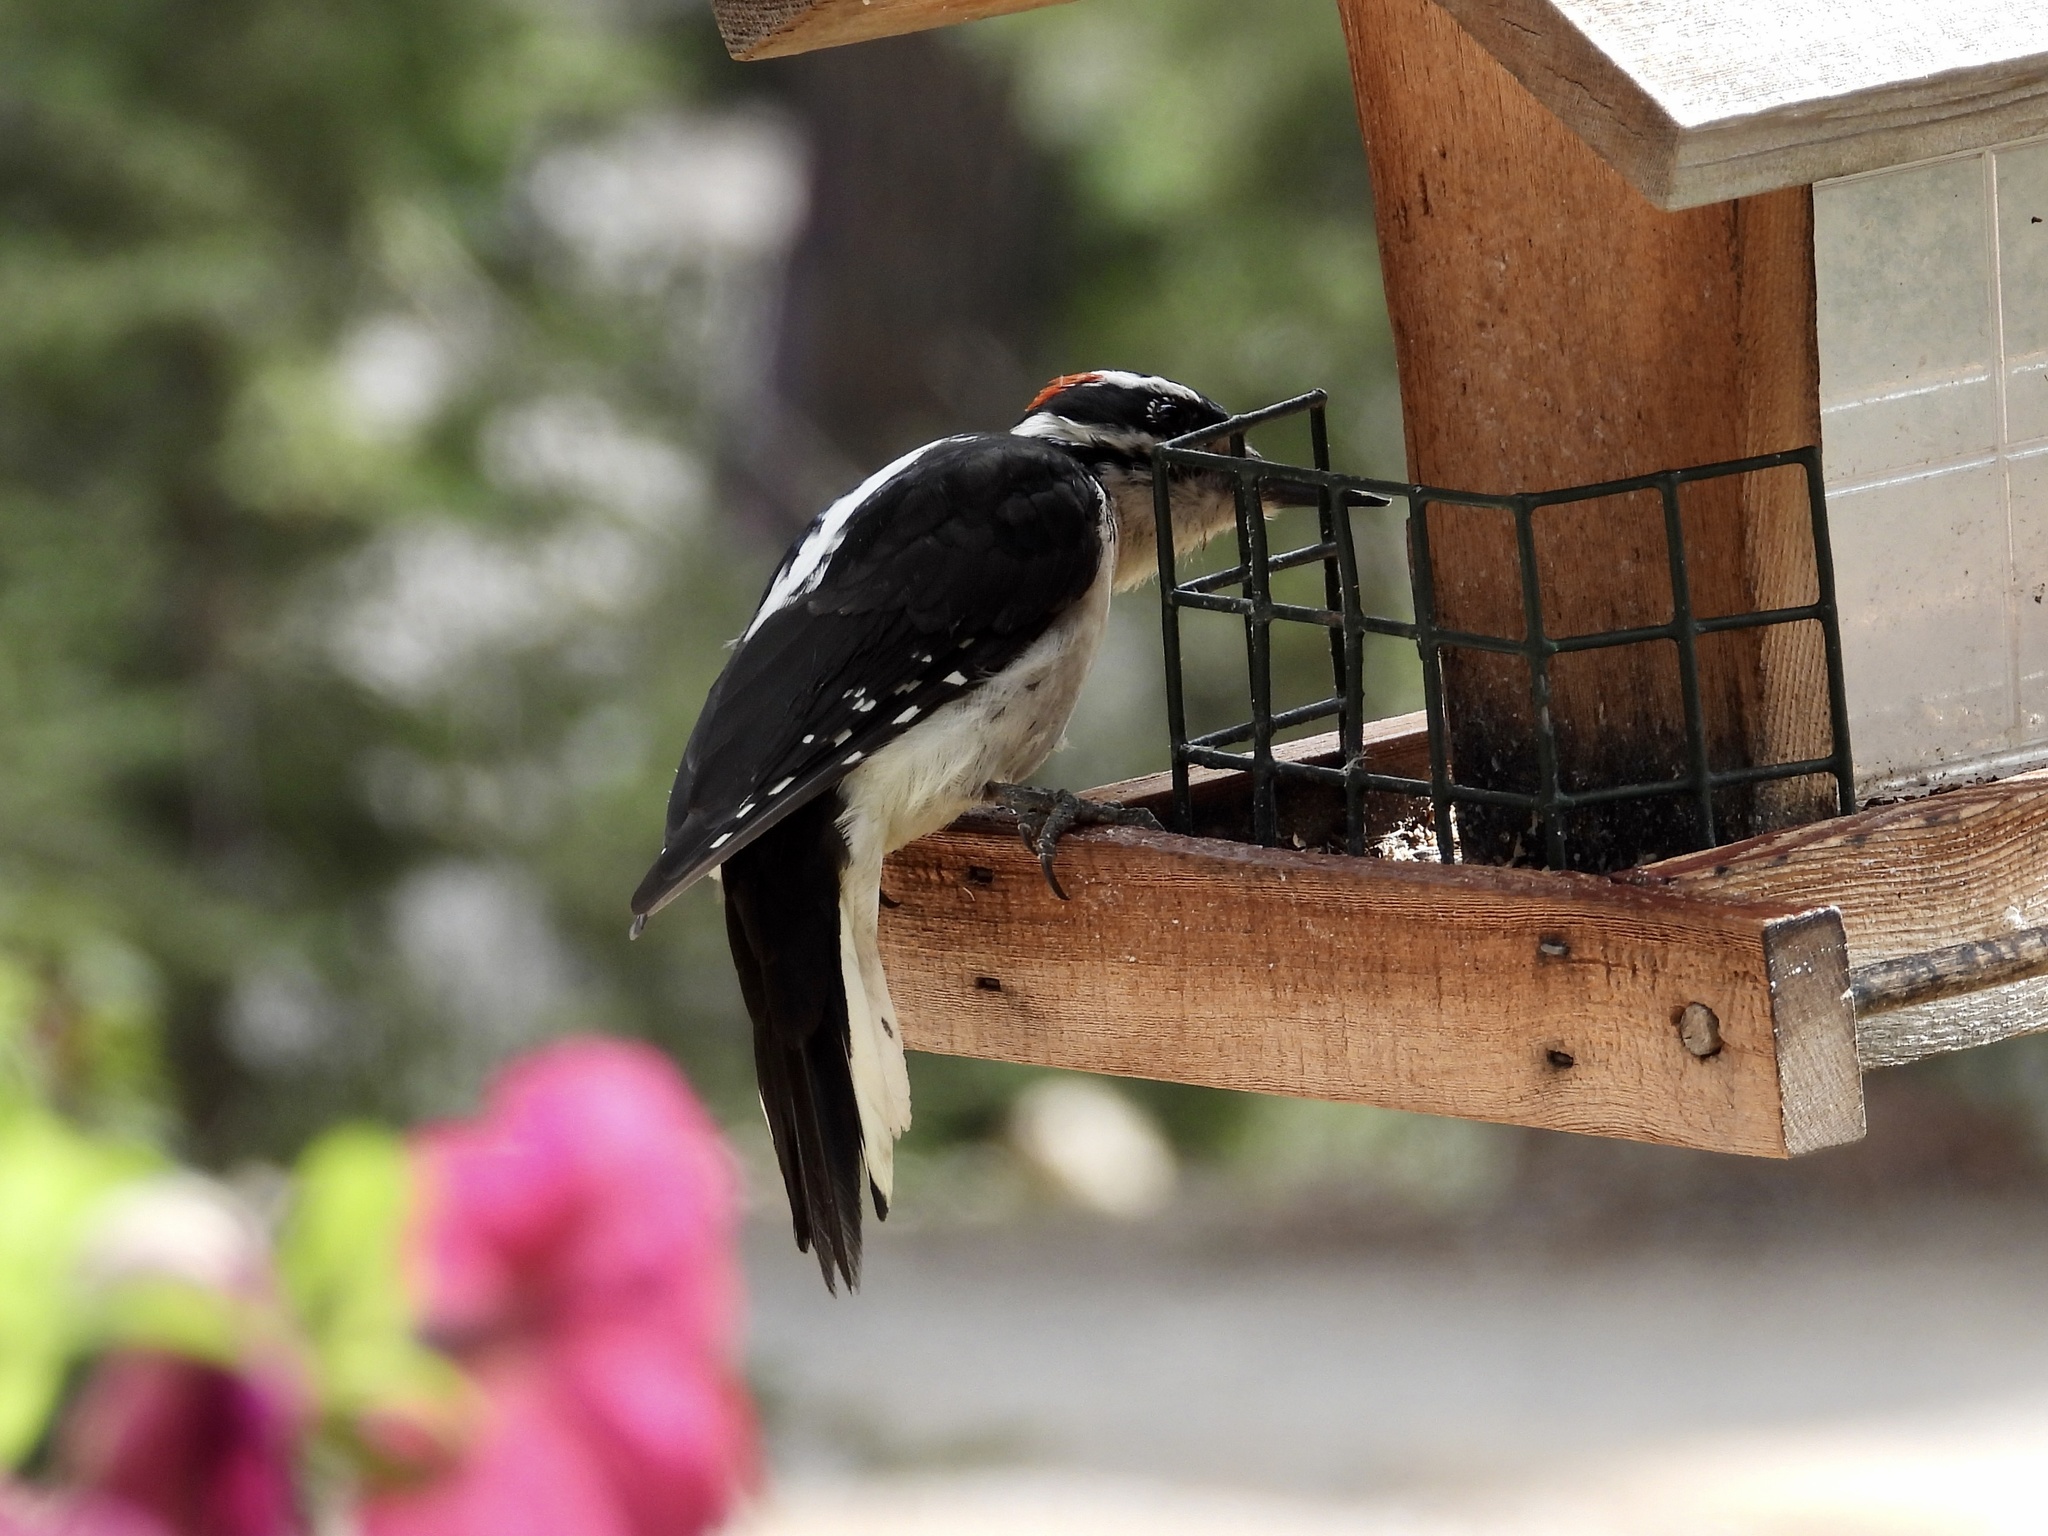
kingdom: Animalia
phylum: Chordata
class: Aves
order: Piciformes
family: Picidae
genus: Leuconotopicus
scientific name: Leuconotopicus villosus
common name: Hairy woodpecker
